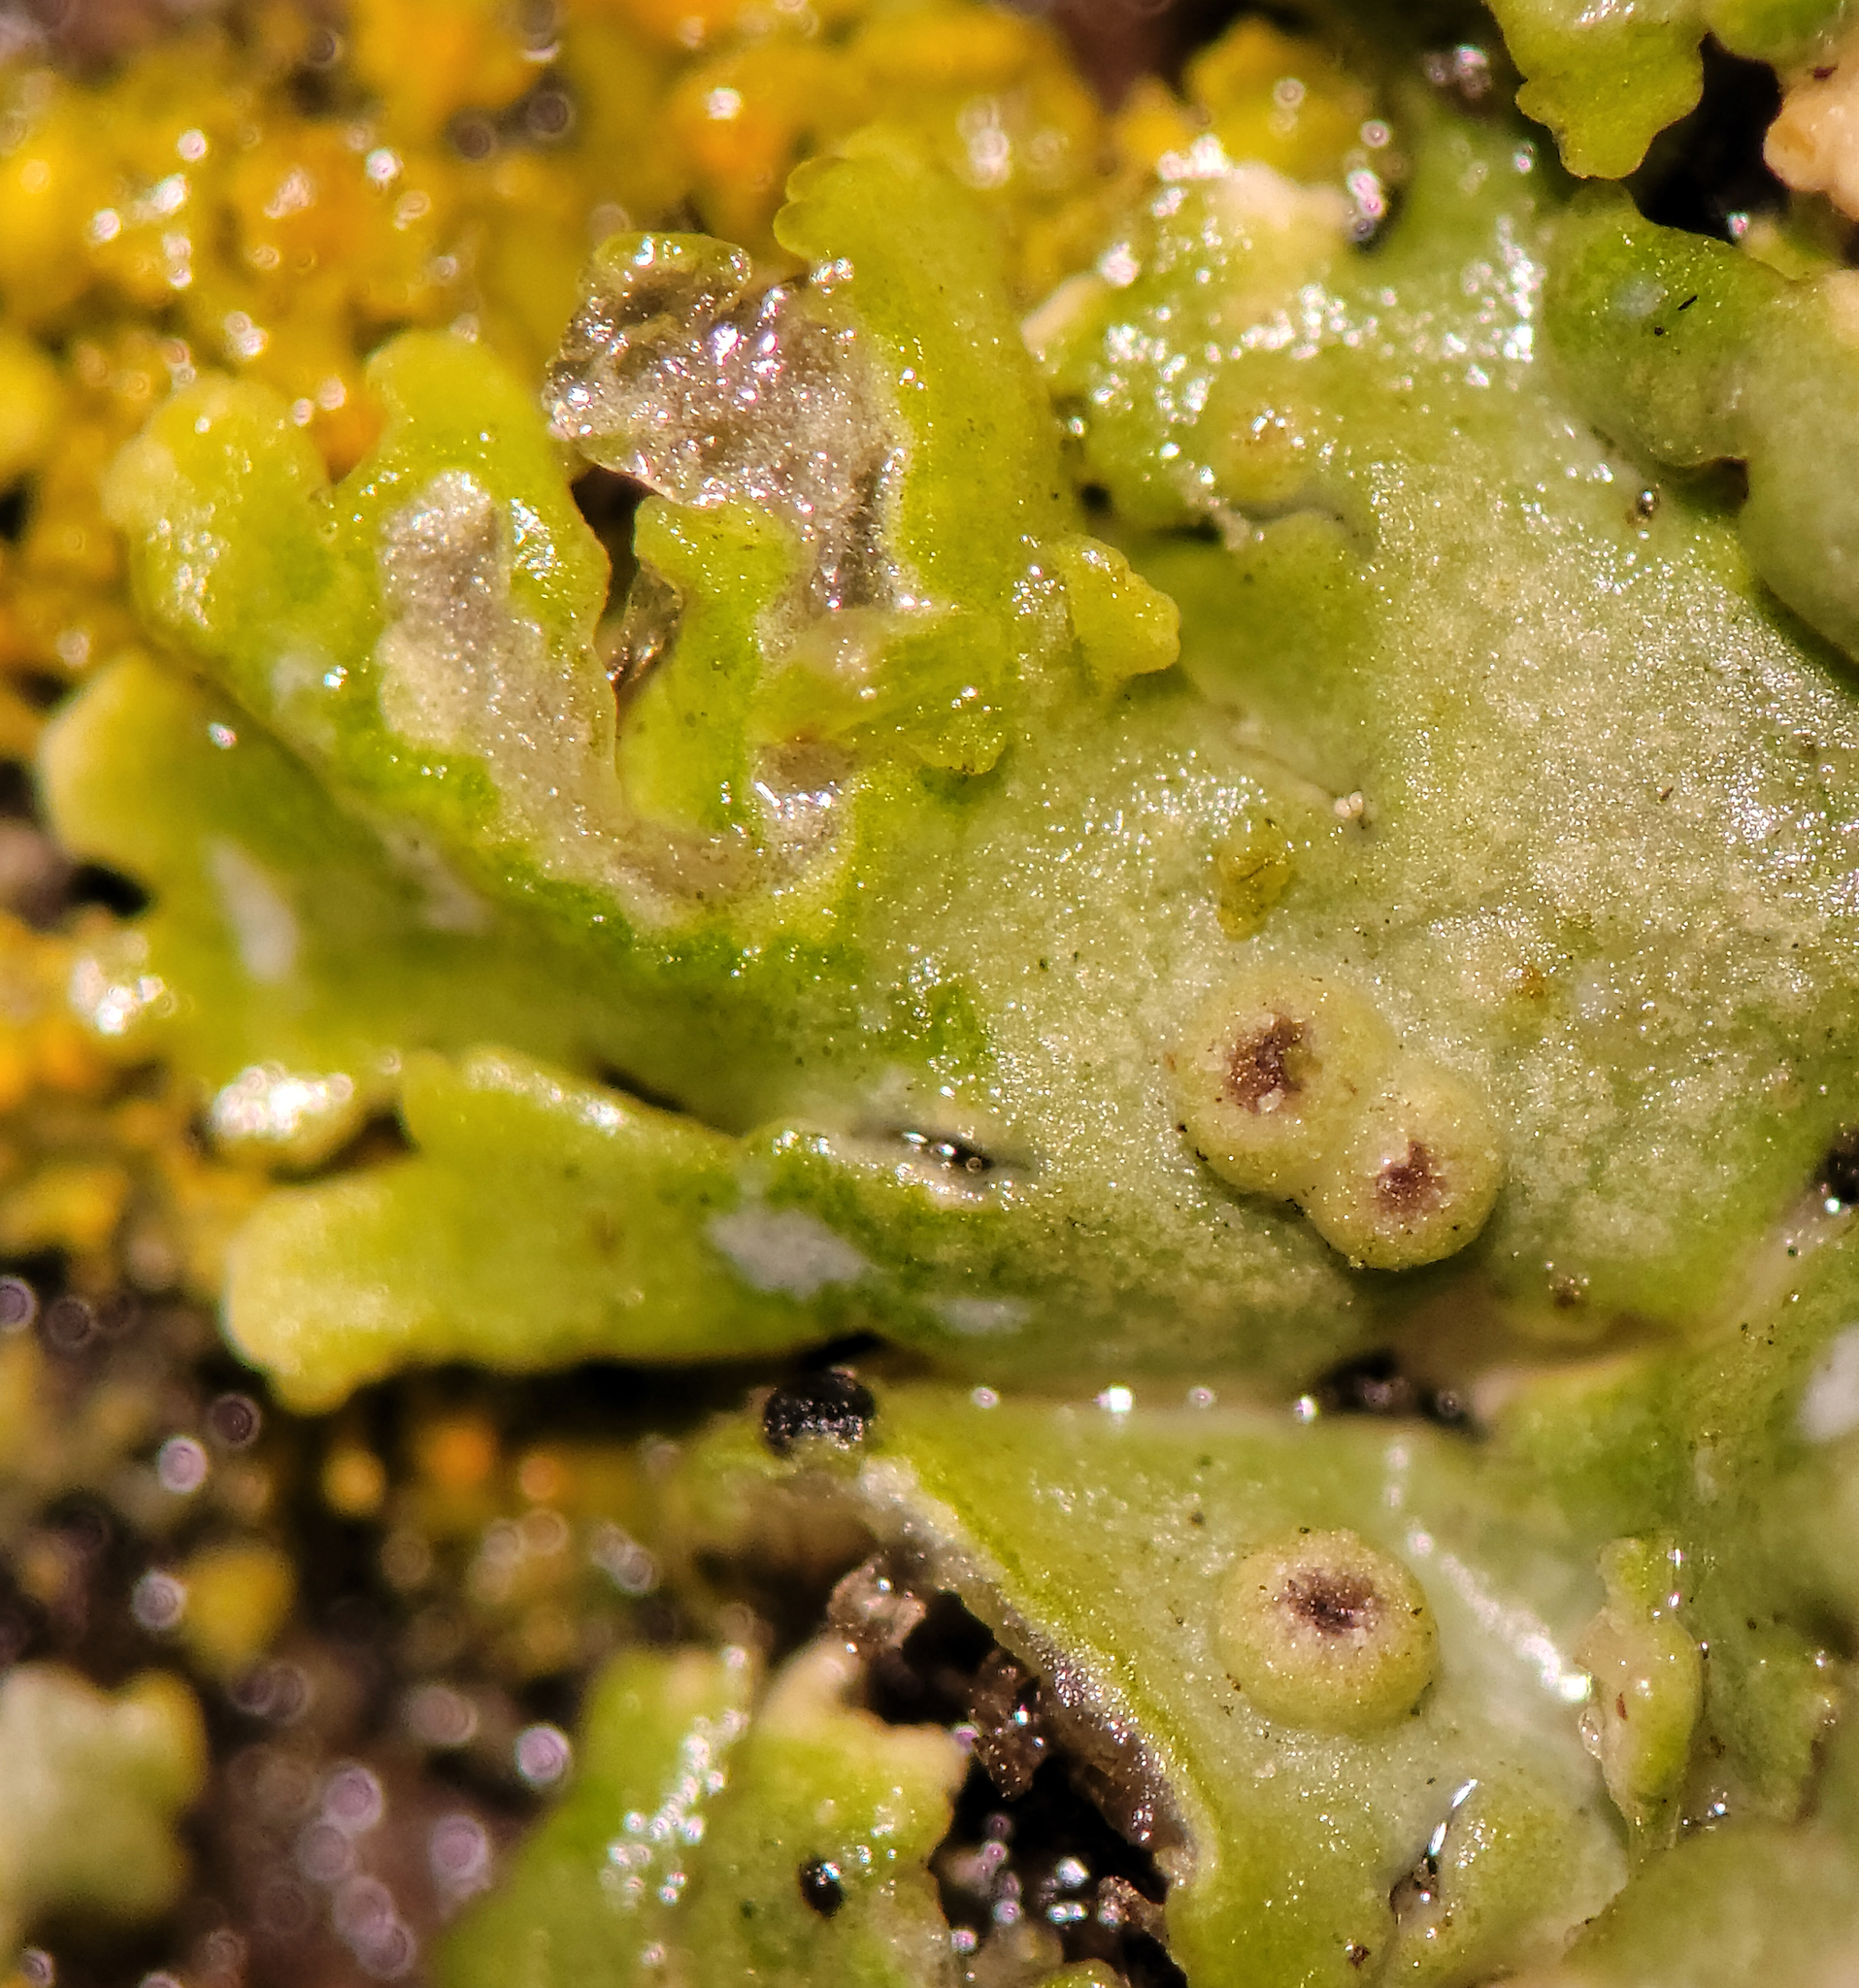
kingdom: Fungi
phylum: Ascomycota
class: Lecanoromycetes
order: Caliciales
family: Physciaceae
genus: Physcia
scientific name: Physcia stellaris
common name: Star rosette lichen
